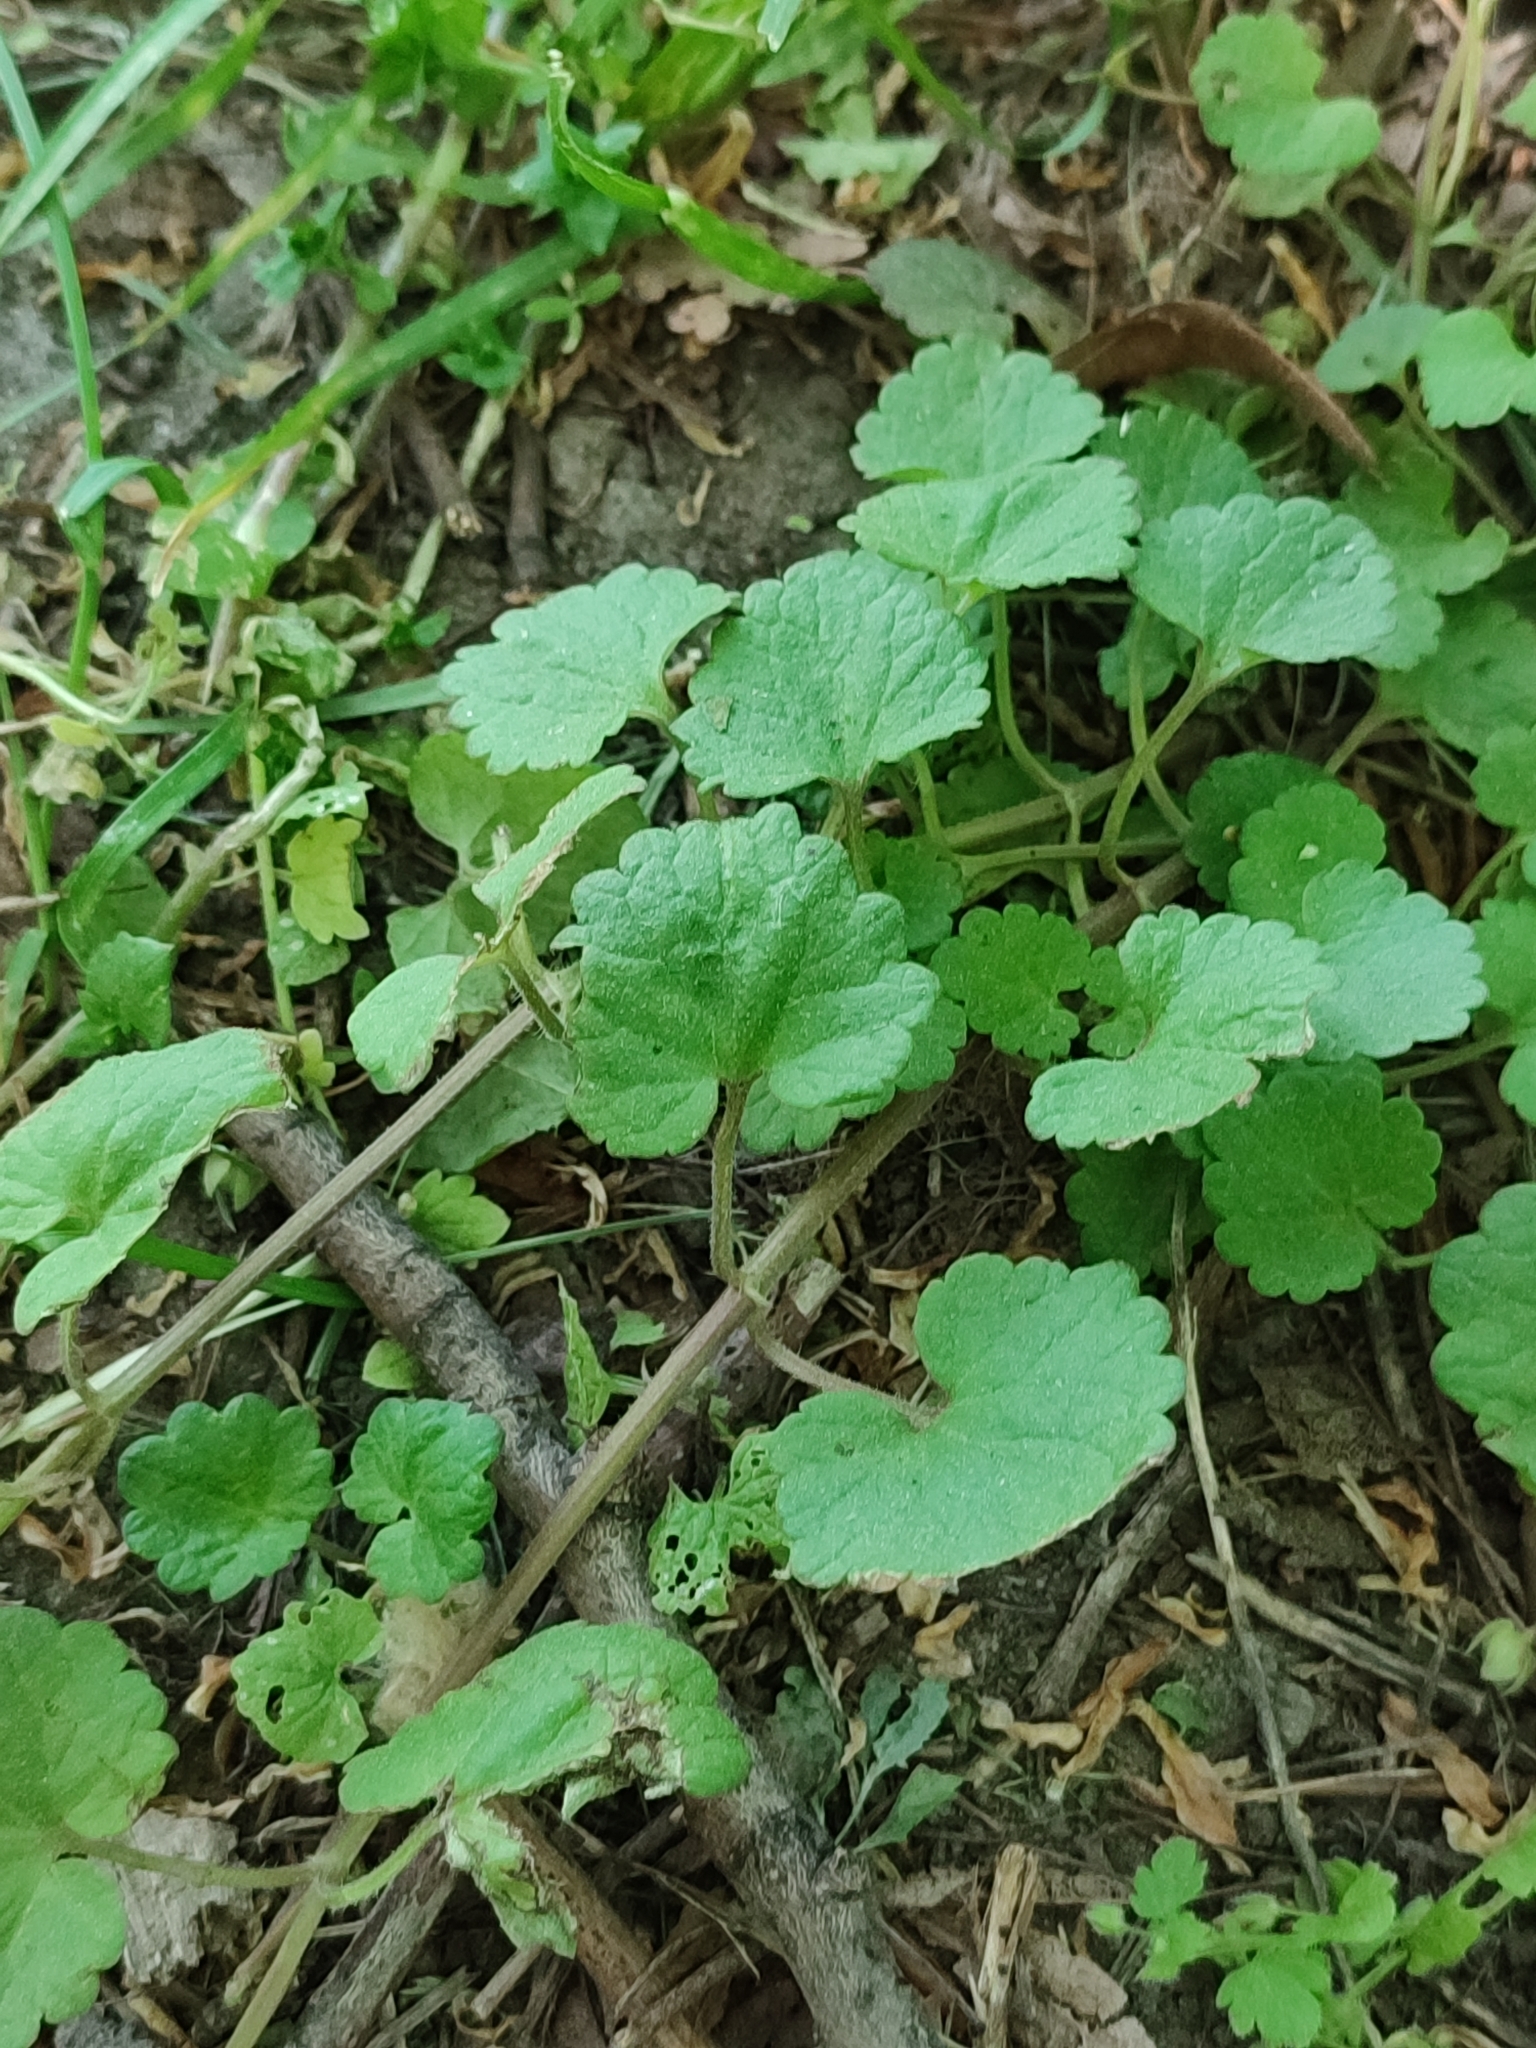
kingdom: Plantae
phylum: Tracheophyta
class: Magnoliopsida
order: Lamiales
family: Lamiaceae
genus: Glechoma
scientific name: Glechoma hederacea
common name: Ground ivy
